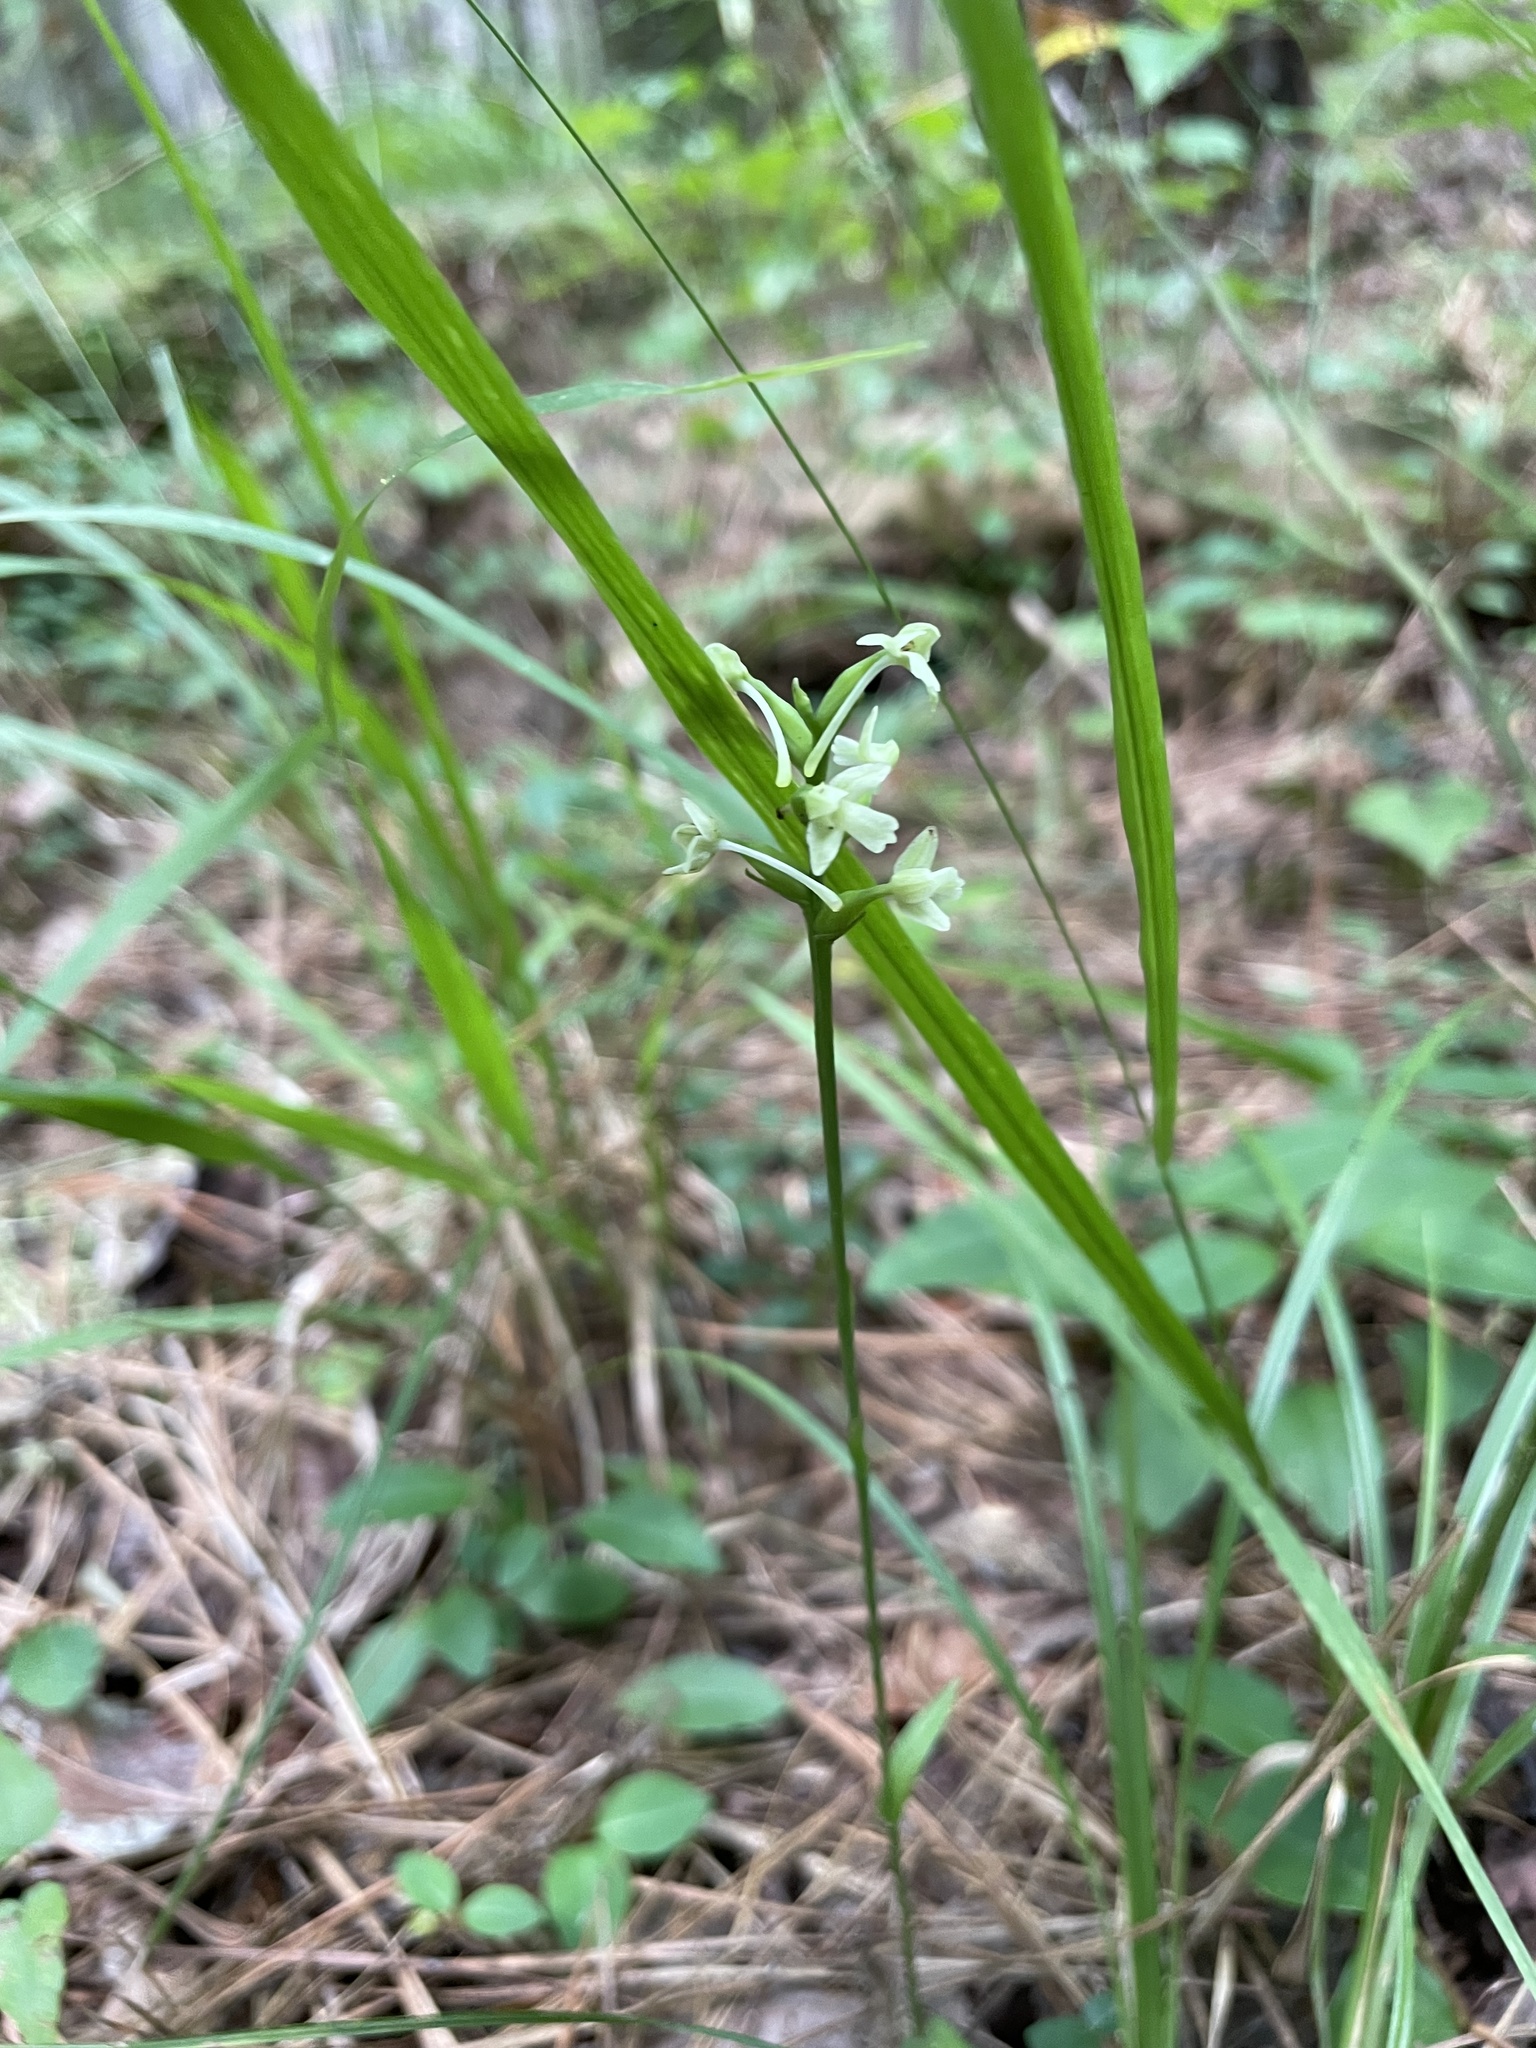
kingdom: Plantae
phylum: Tracheophyta
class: Liliopsida
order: Asparagales
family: Orchidaceae
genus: Platanthera
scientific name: Platanthera clavellata
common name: Club-spur orchid
